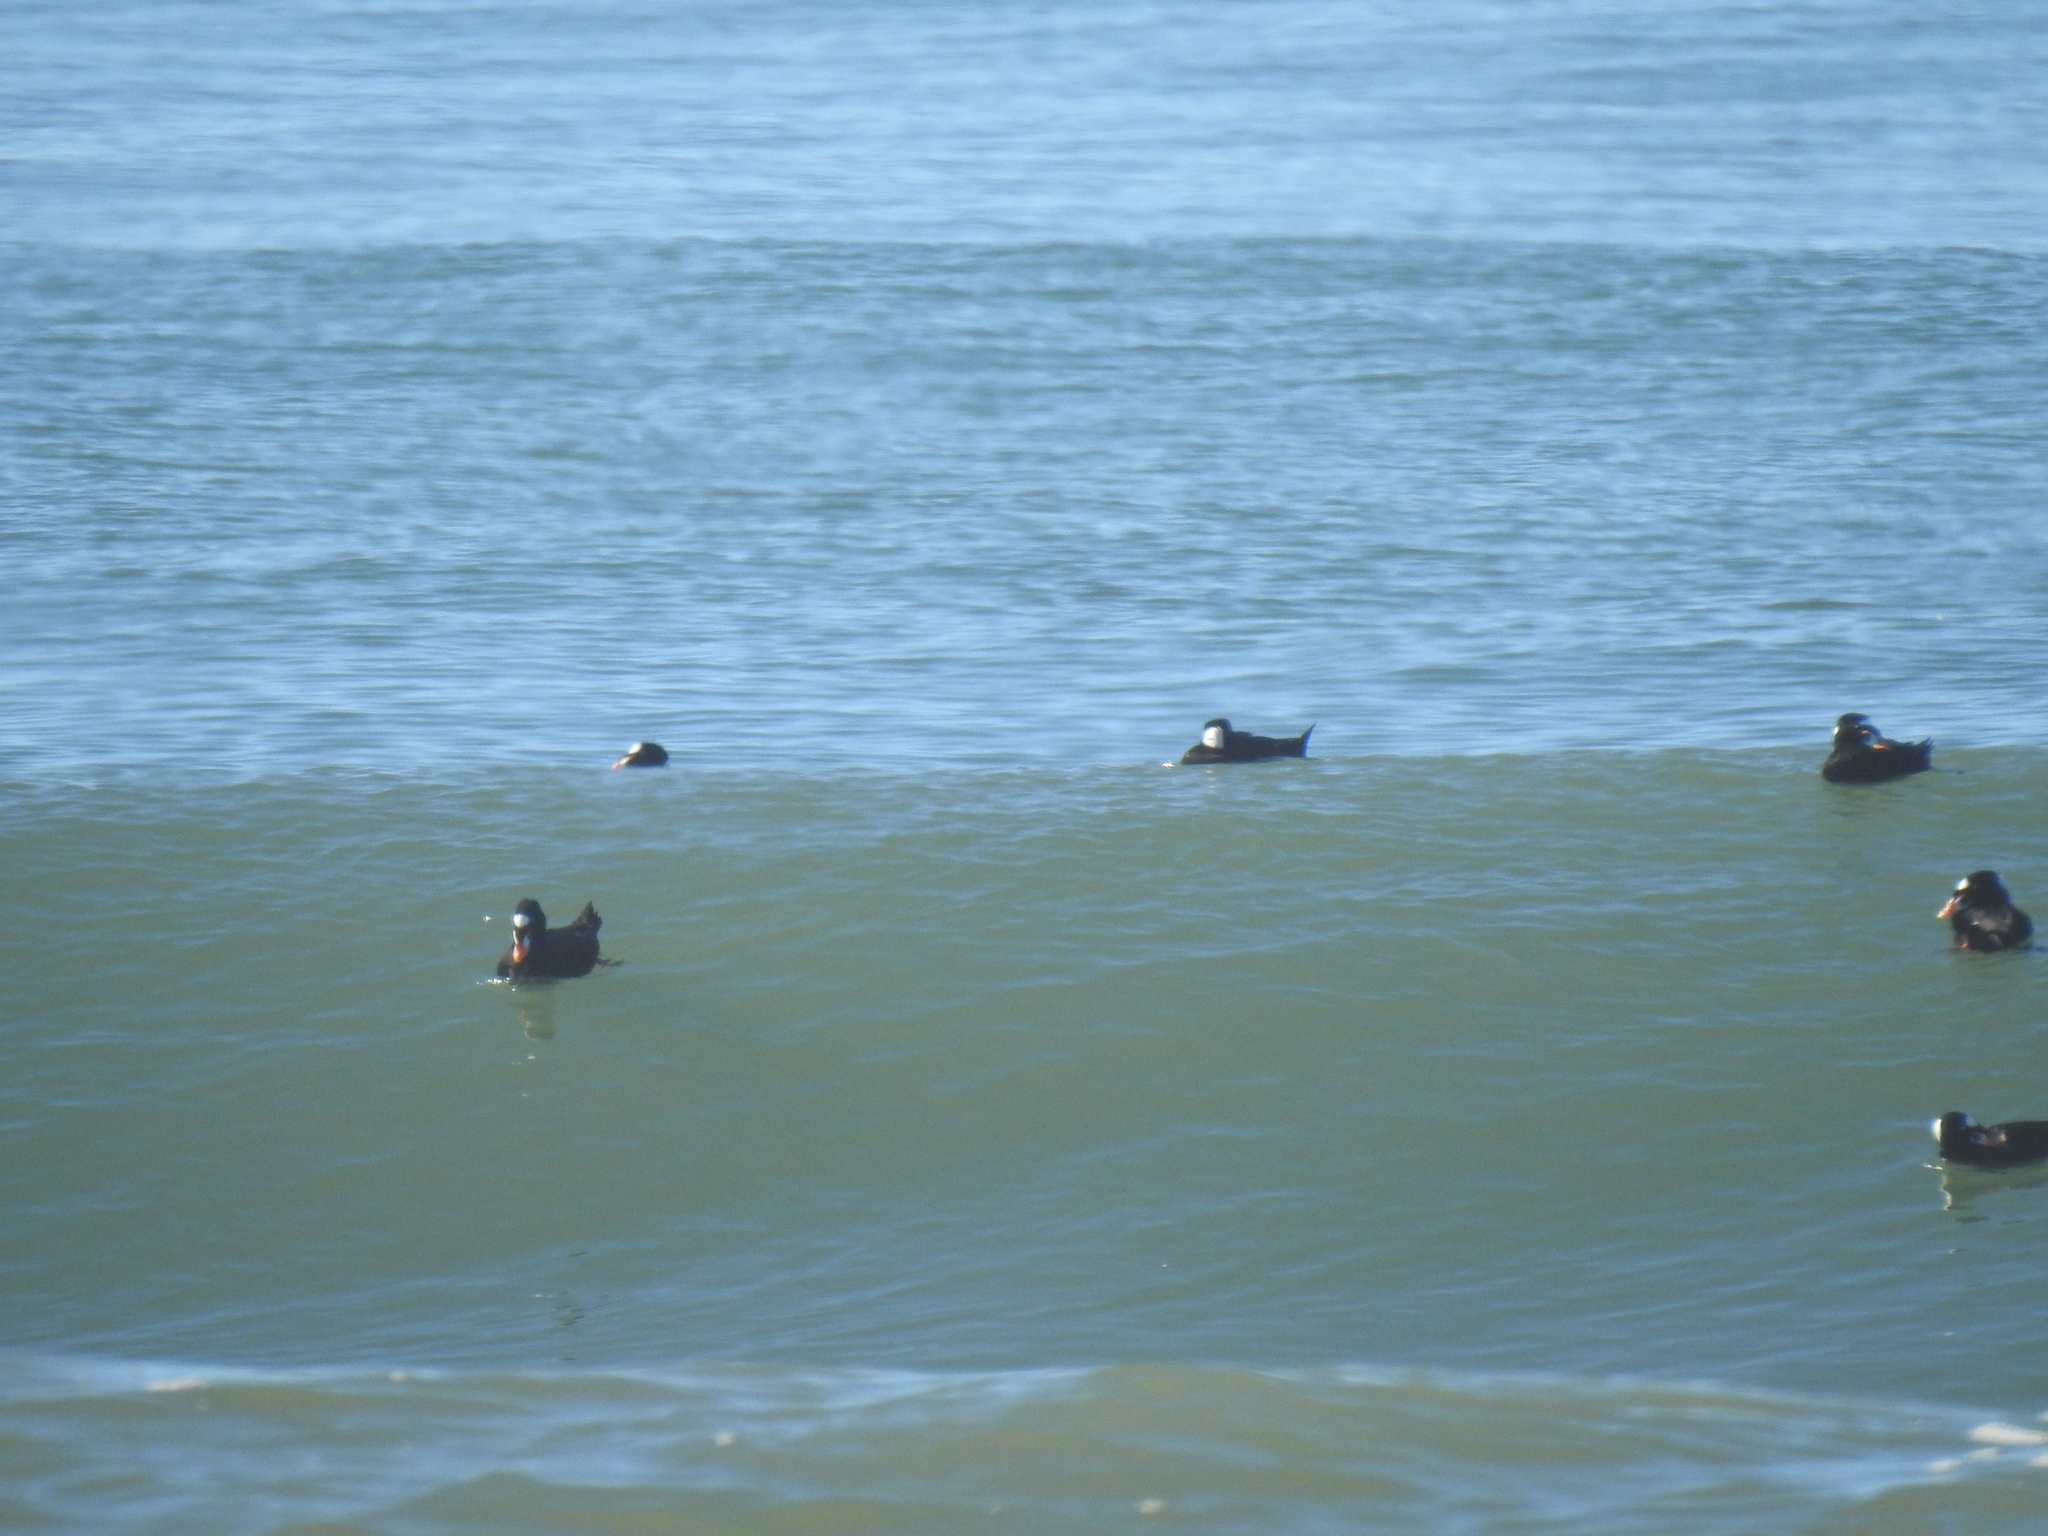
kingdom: Animalia
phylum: Chordata
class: Aves
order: Anseriformes
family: Anatidae
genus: Melanitta
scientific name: Melanitta perspicillata
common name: Surf scoter
